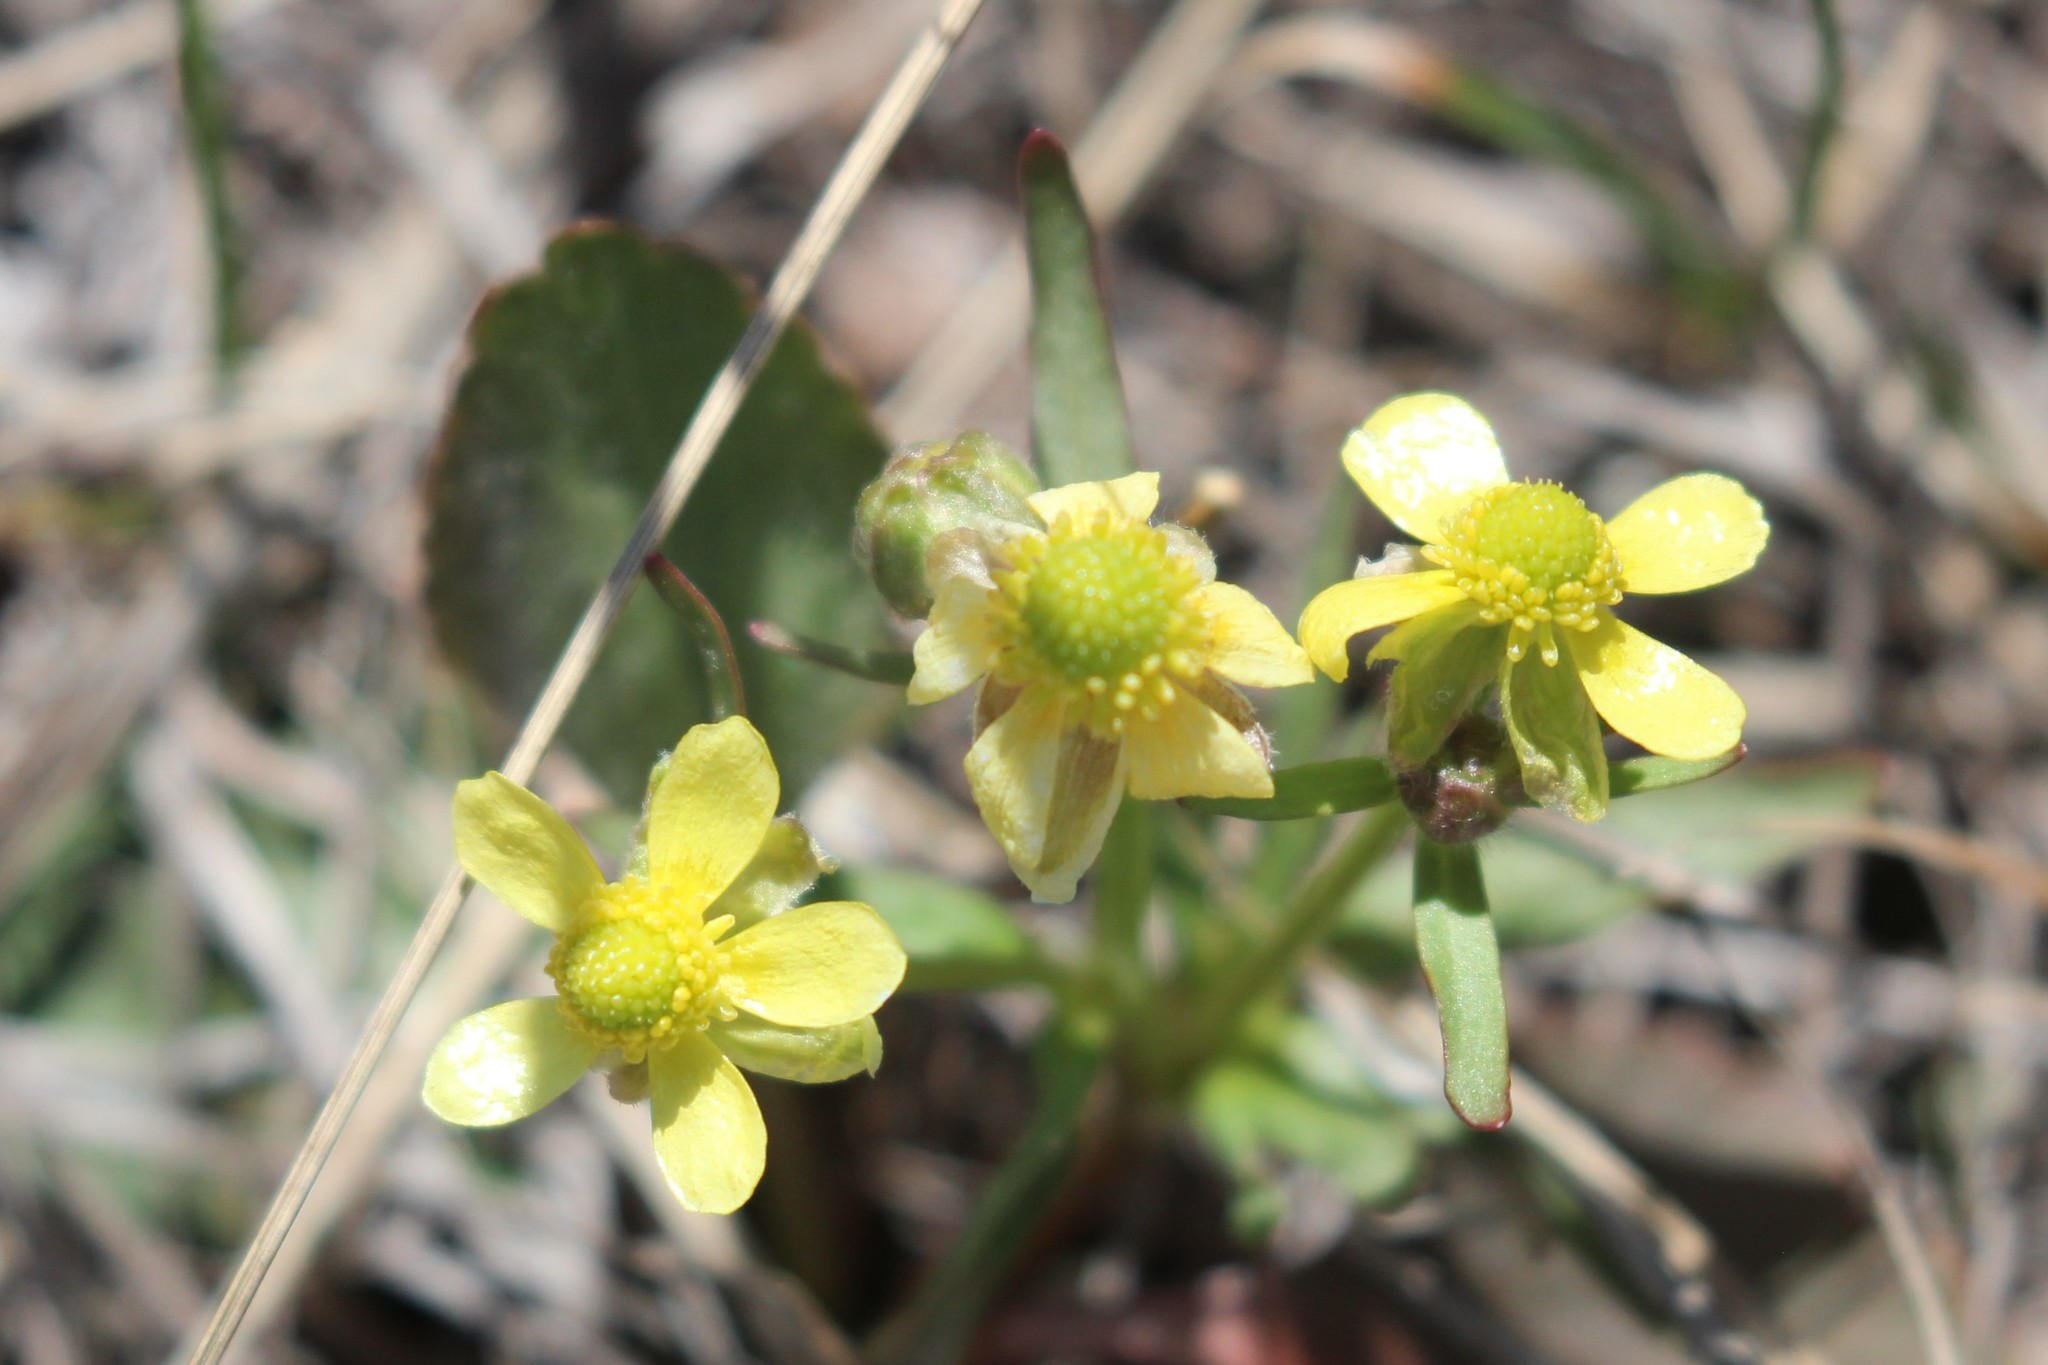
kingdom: Plantae
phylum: Tracheophyta
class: Magnoliopsida
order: Ranunculales
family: Ranunculaceae
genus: Ranunculus
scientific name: Ranunculus rhomboideus
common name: Prairie buttercup
